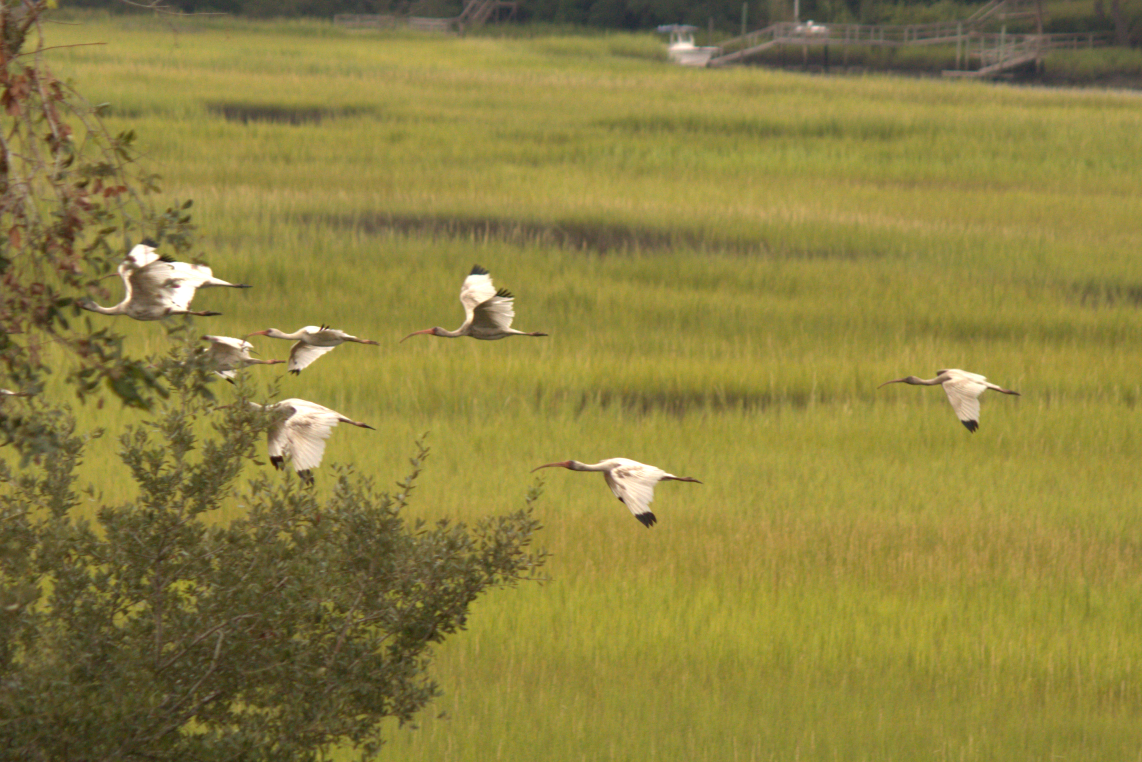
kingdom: Animalia
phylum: Chordata
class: Aves
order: Pelecaniformes
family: Threskiornithidae
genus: Eudocimus
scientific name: Eudocimus albus
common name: White ibis
